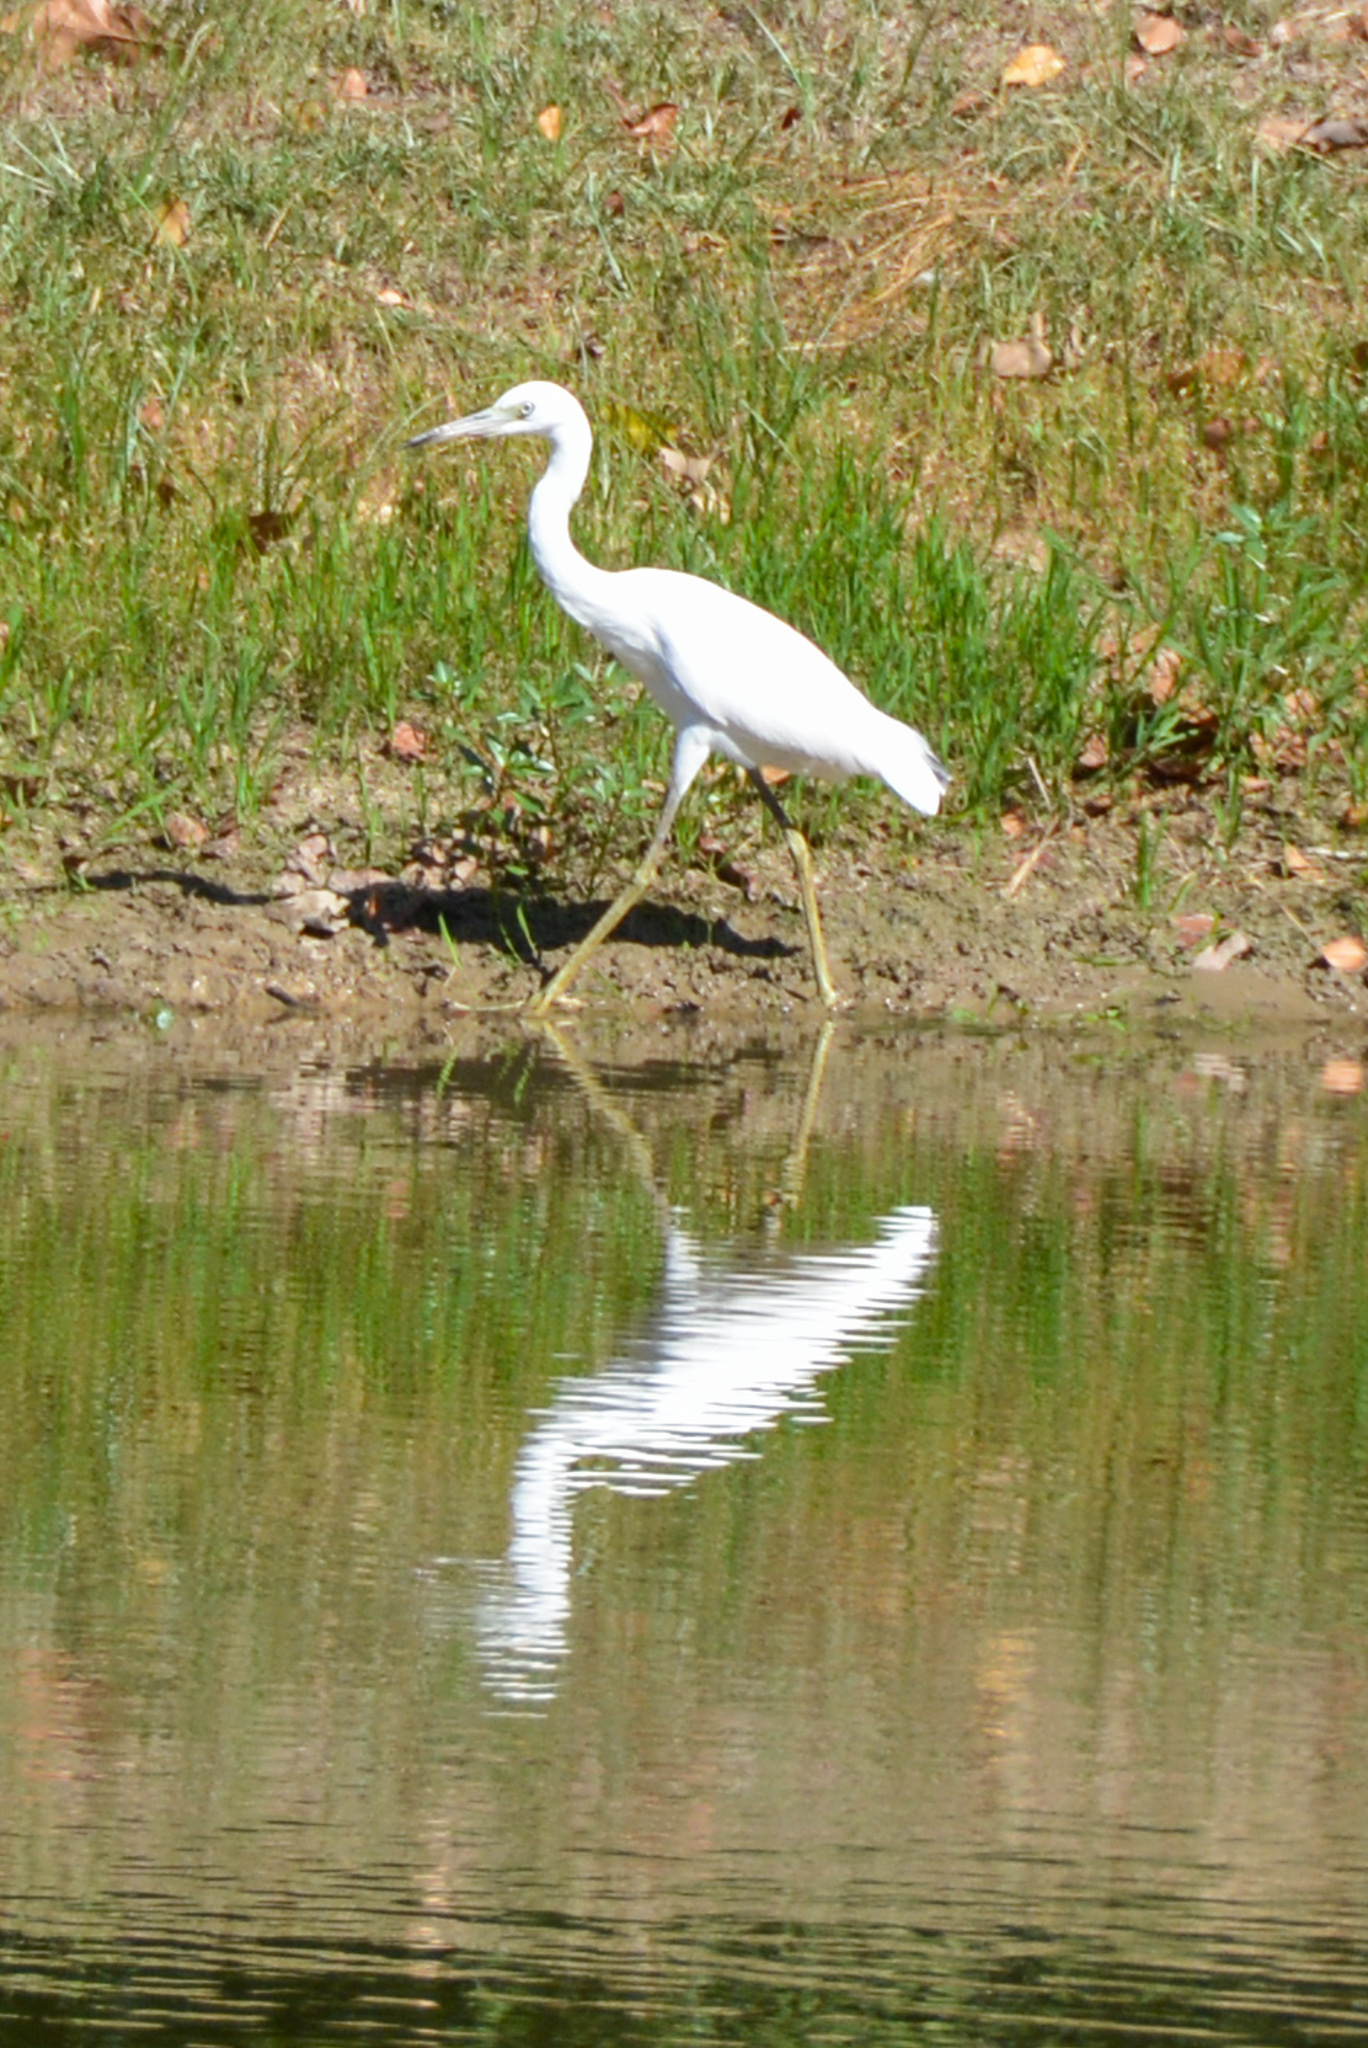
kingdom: Animalia
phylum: Chordata
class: Aves
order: Pelecaniformes
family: Ardeidae
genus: Egretta
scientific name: Egretta caerulea
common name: Little blue heron
